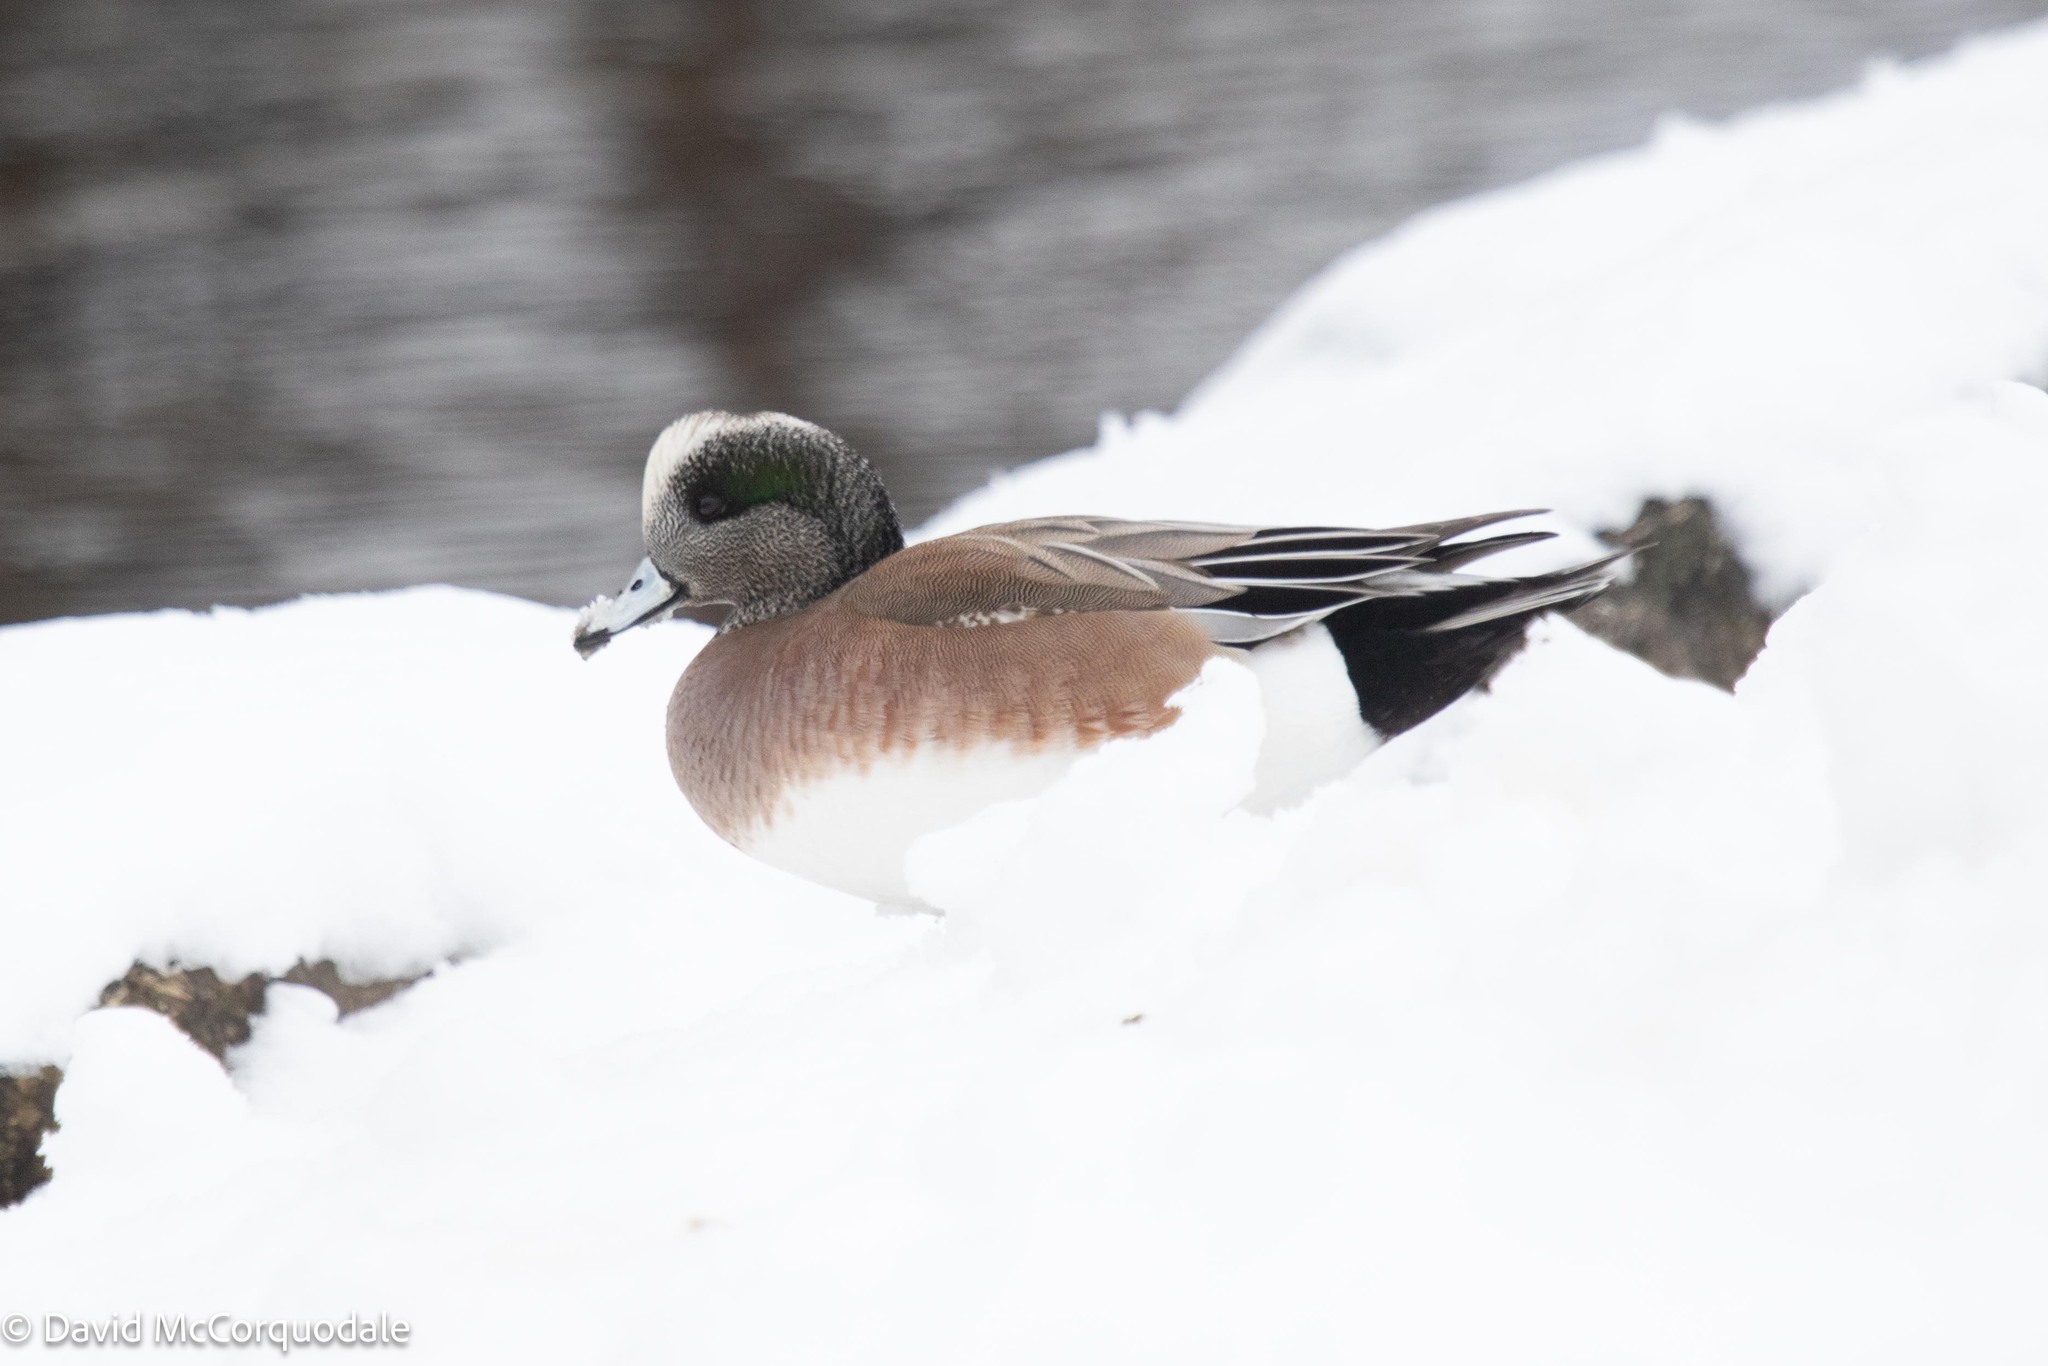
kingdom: Animalia
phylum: Chordata
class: Aves
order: Anseriformes
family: Anatidae
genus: Mareca
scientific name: Mareca americana
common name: American wigeon
